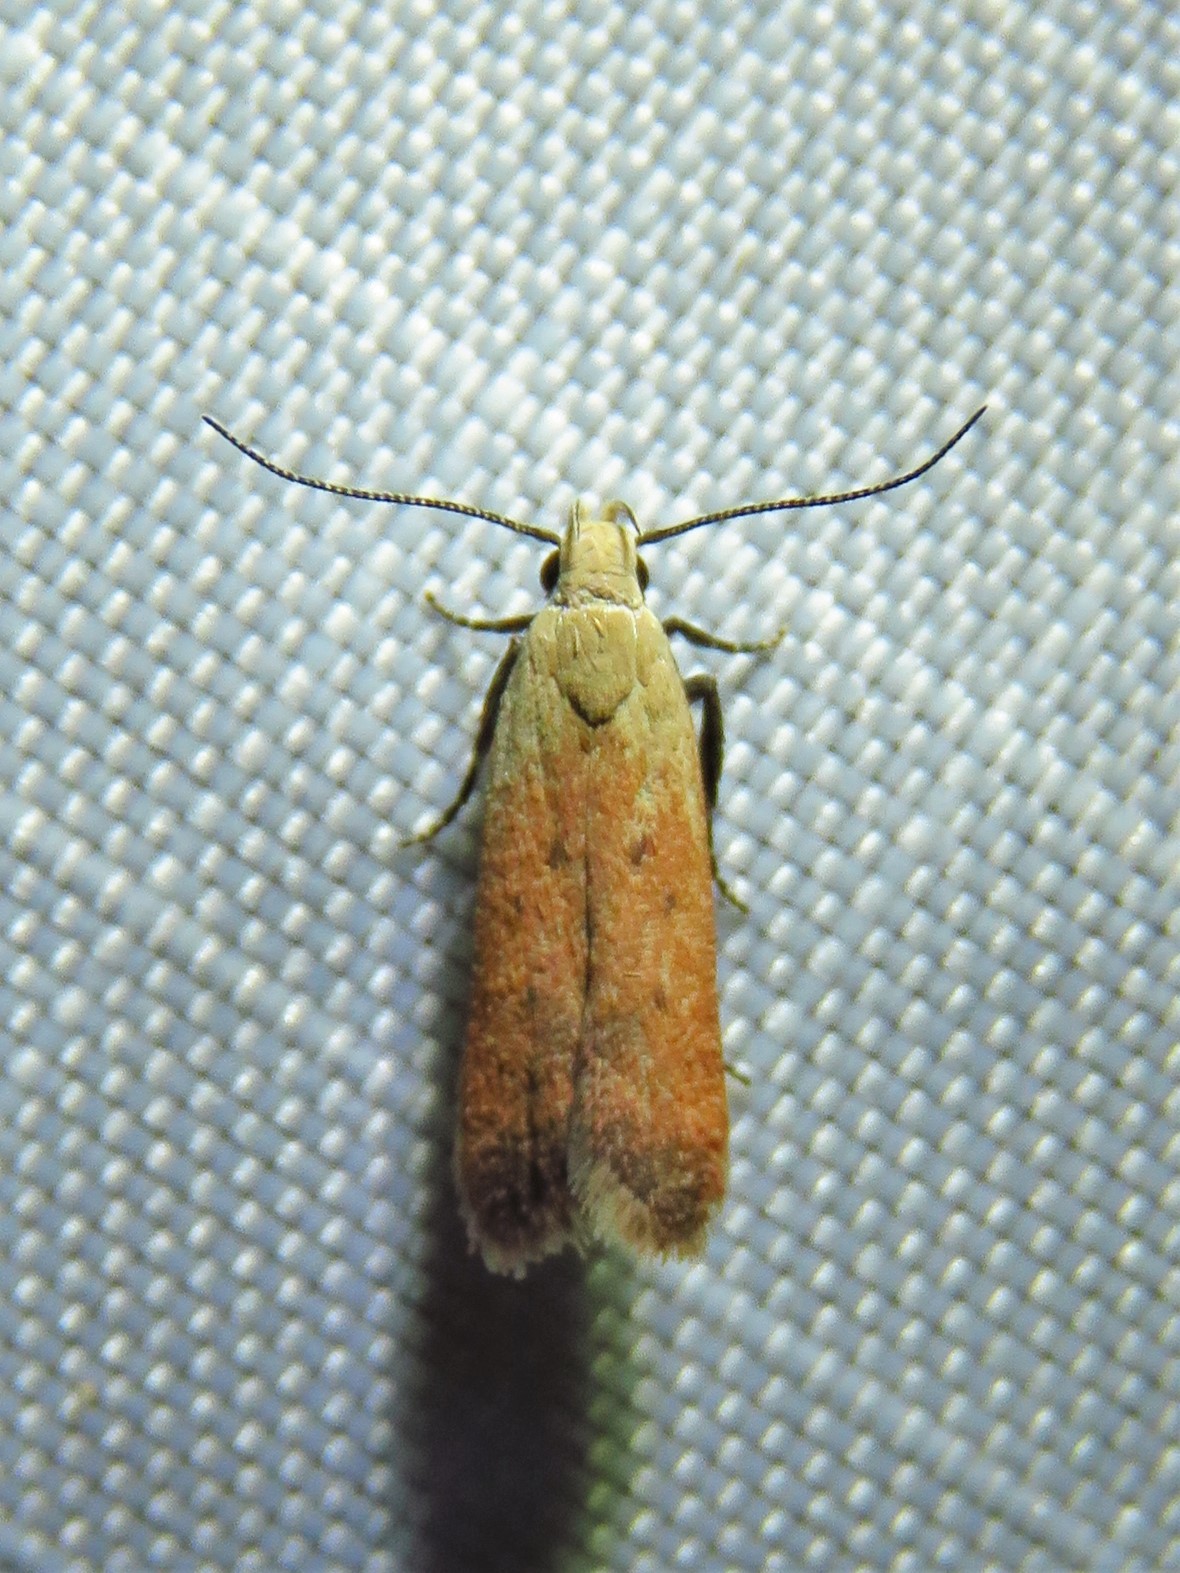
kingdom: Animalia
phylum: Arthropoda
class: Insecta
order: Lepidoptera
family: Gelechiidae
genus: Anacampsis
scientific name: Anacampsis fullonella
